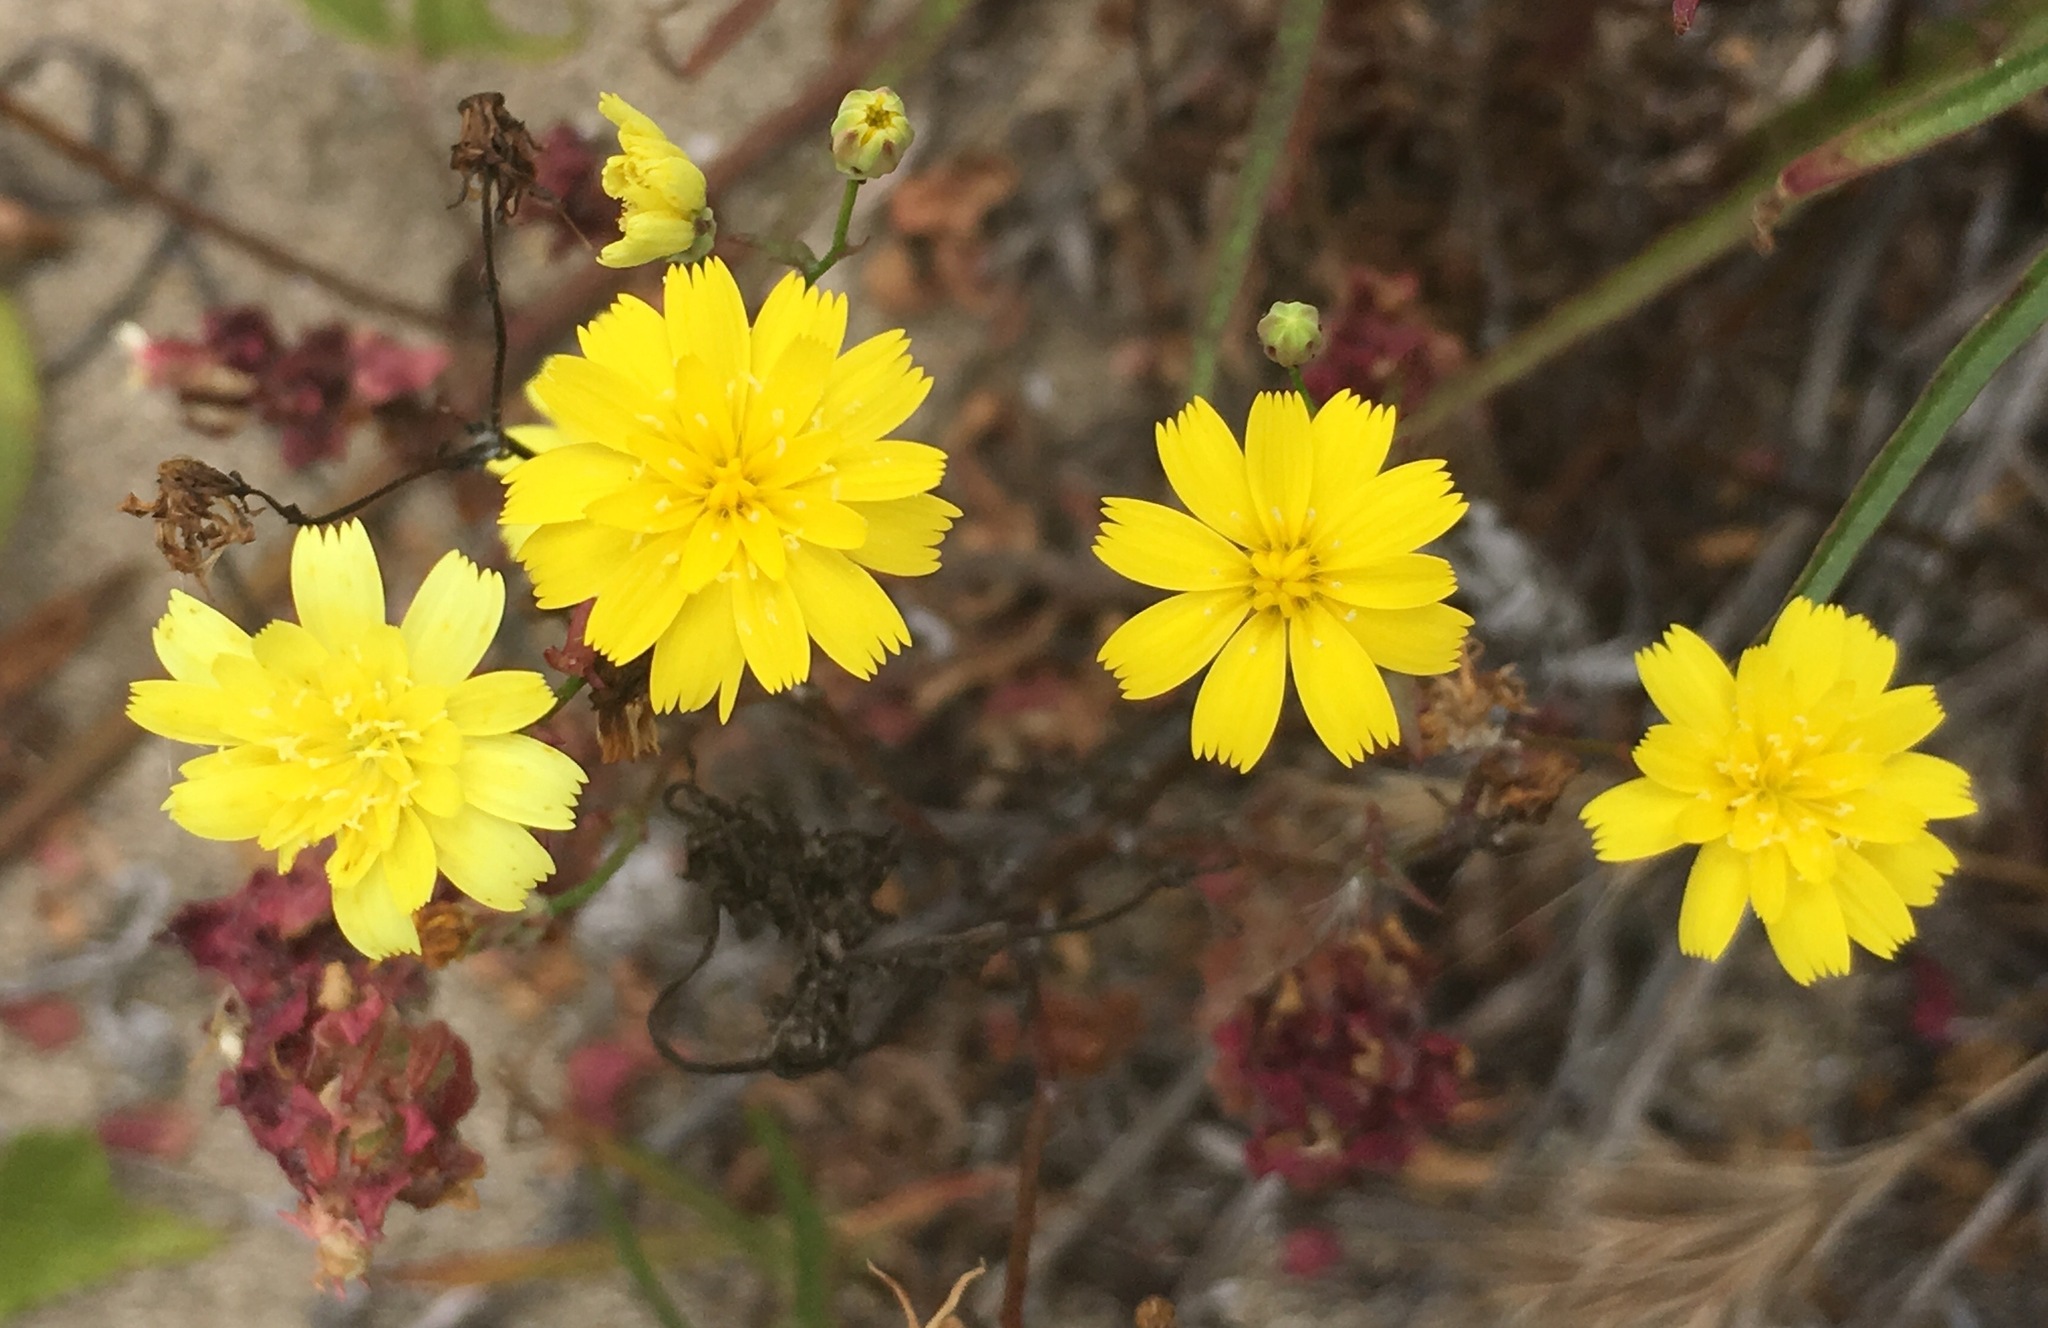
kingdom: Plantae
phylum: Tracheophyta
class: Magnoliopsida
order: Asterales
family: Asteraceae
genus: Malacothrix
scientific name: Malacothrix foliosa
